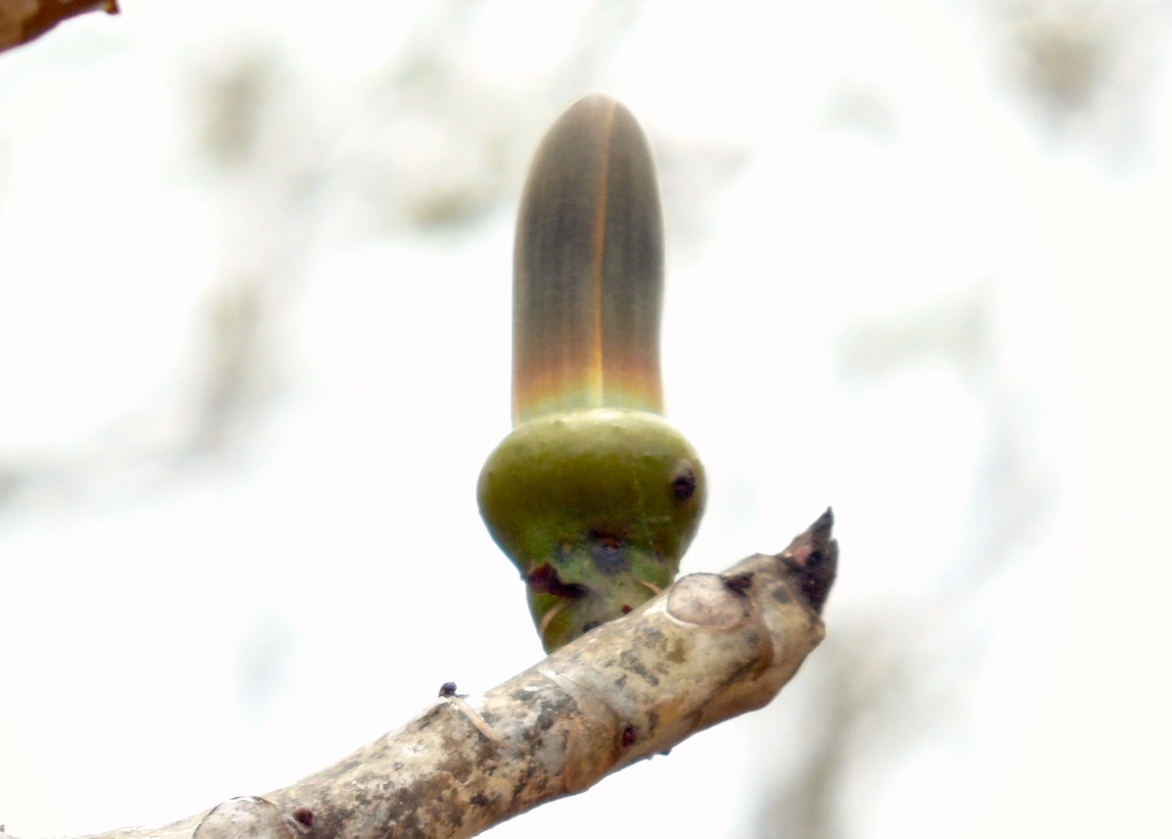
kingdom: Plantae
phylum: Tracheophyta
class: Magnoliopsida
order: Malvales
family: Malvaceae
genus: Pseudobombax
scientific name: Pseudobombax palmeri
